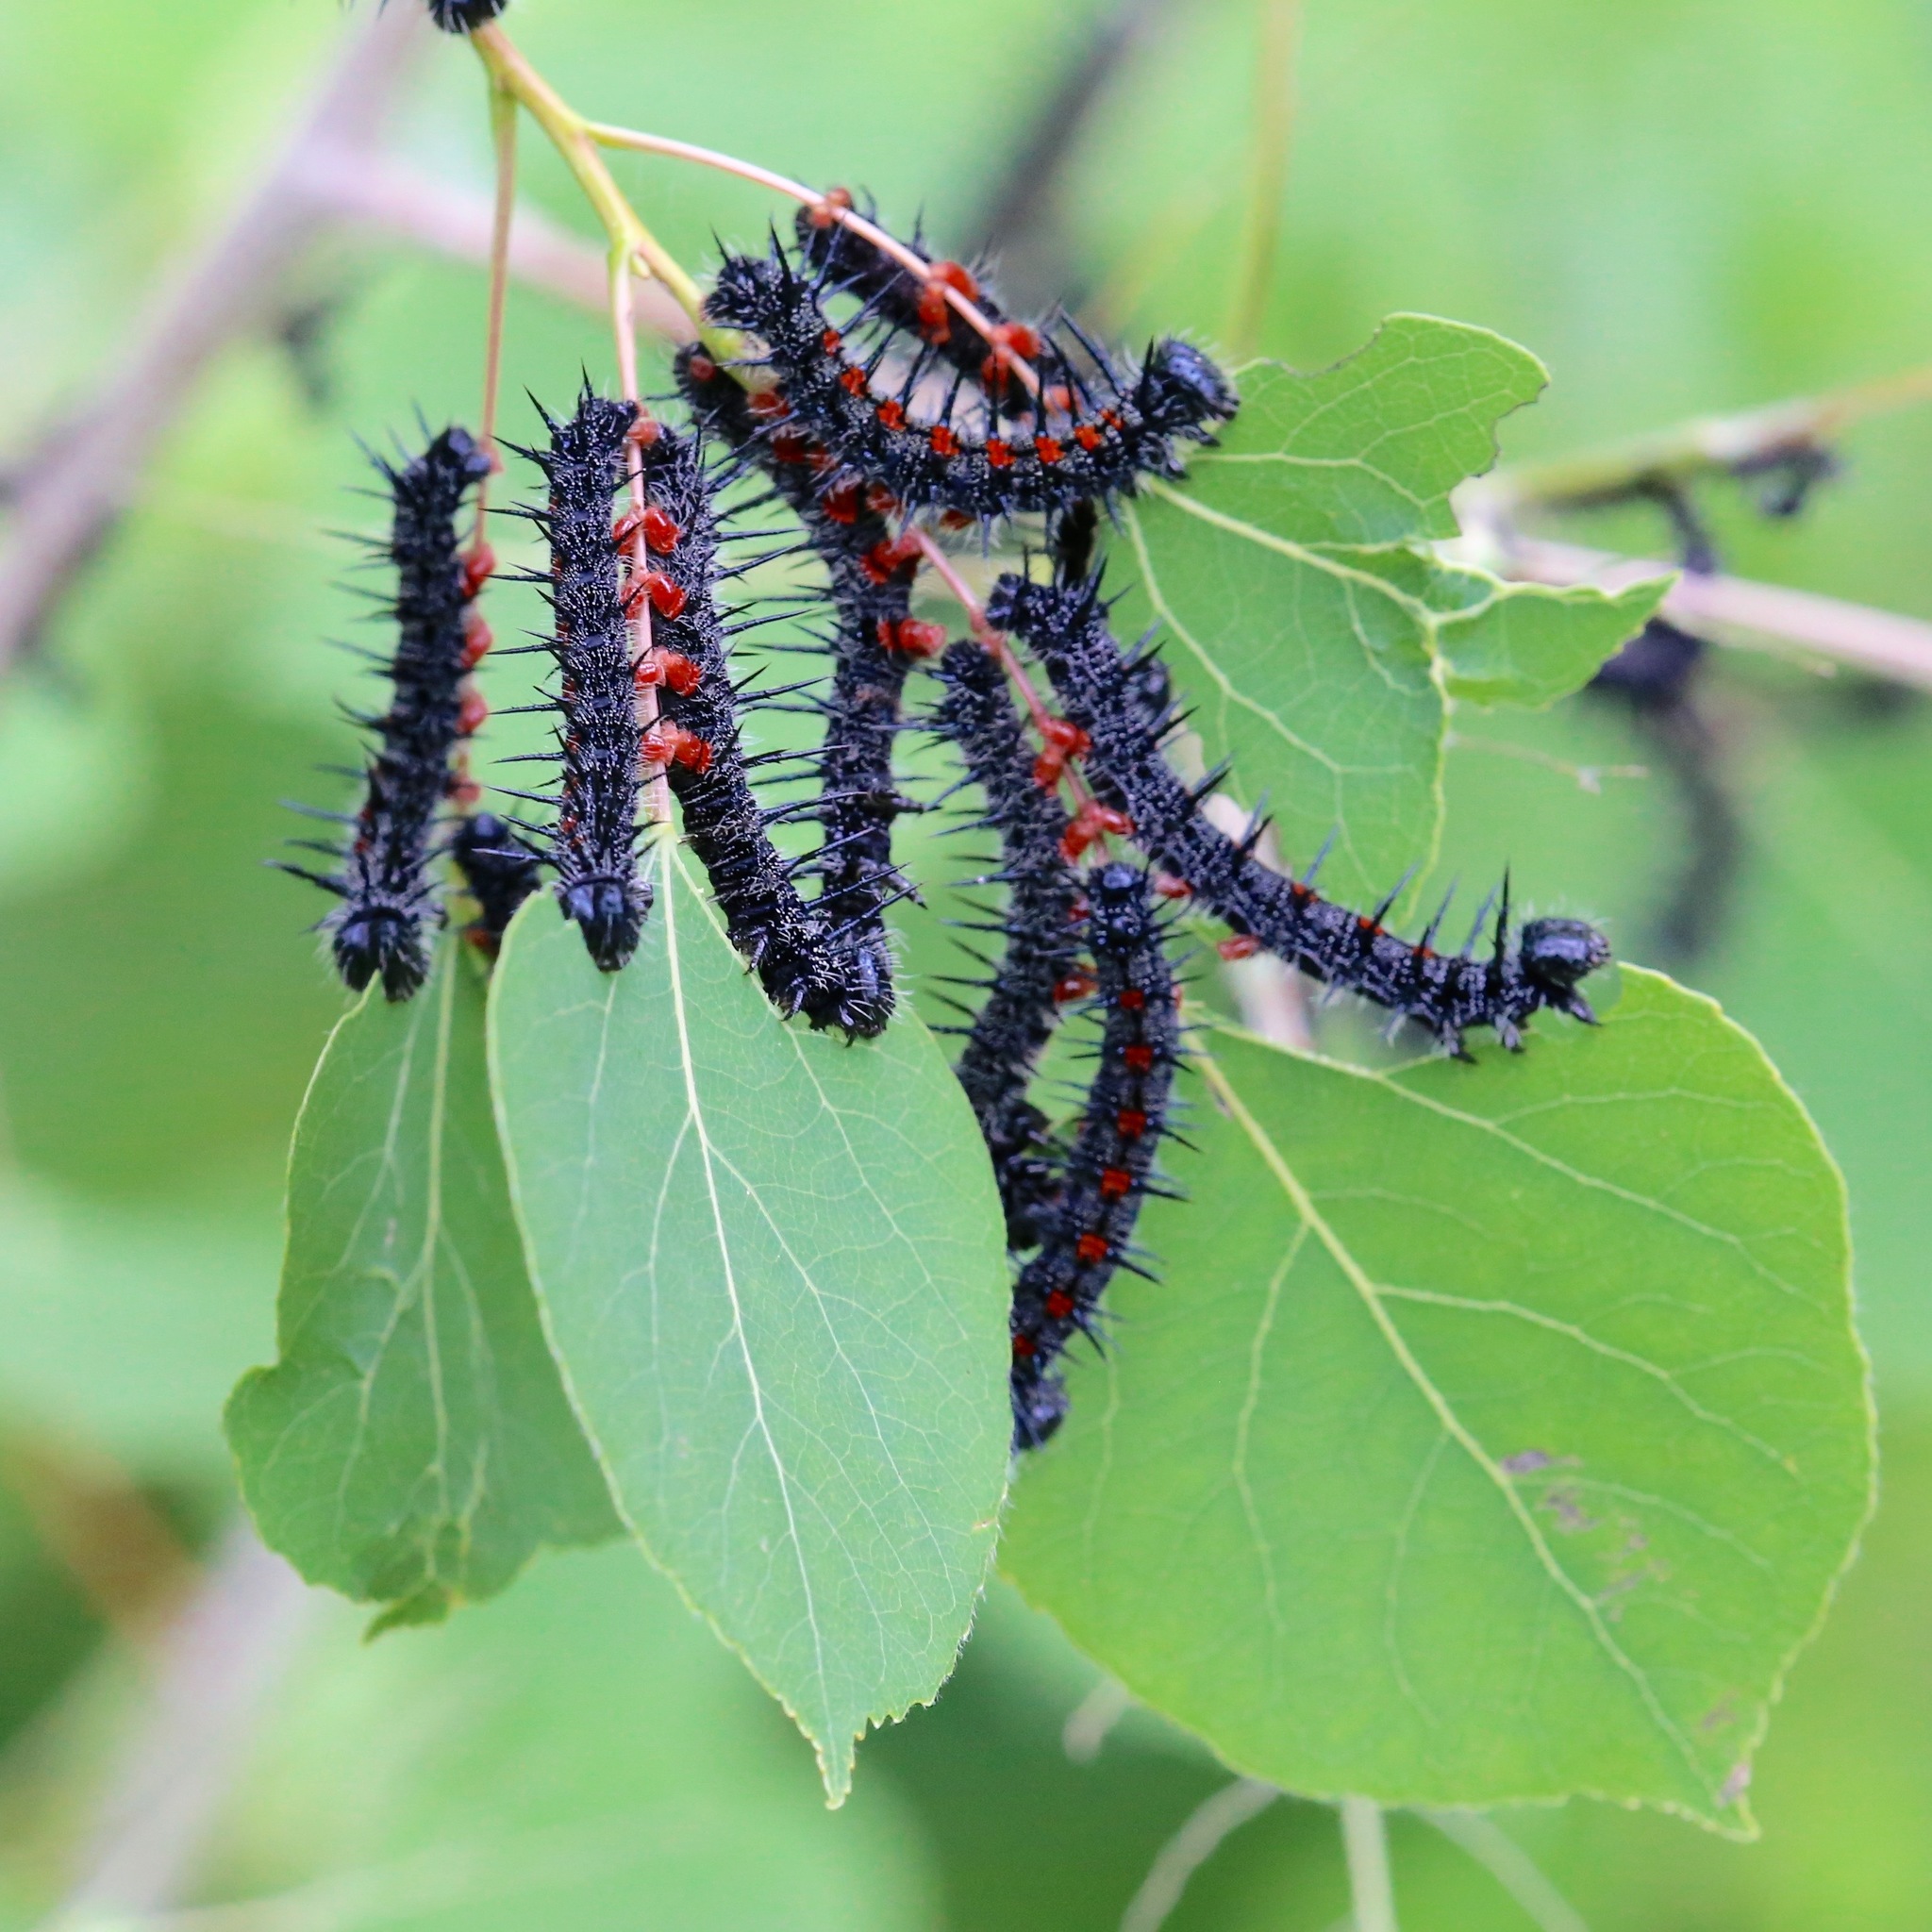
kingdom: Animalia
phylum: Arthropoda
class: Insecta
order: Lepidoptera
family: Nymphalidae
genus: Nymphalis
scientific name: Nymphalis antiopa
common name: Camberwell beauty
